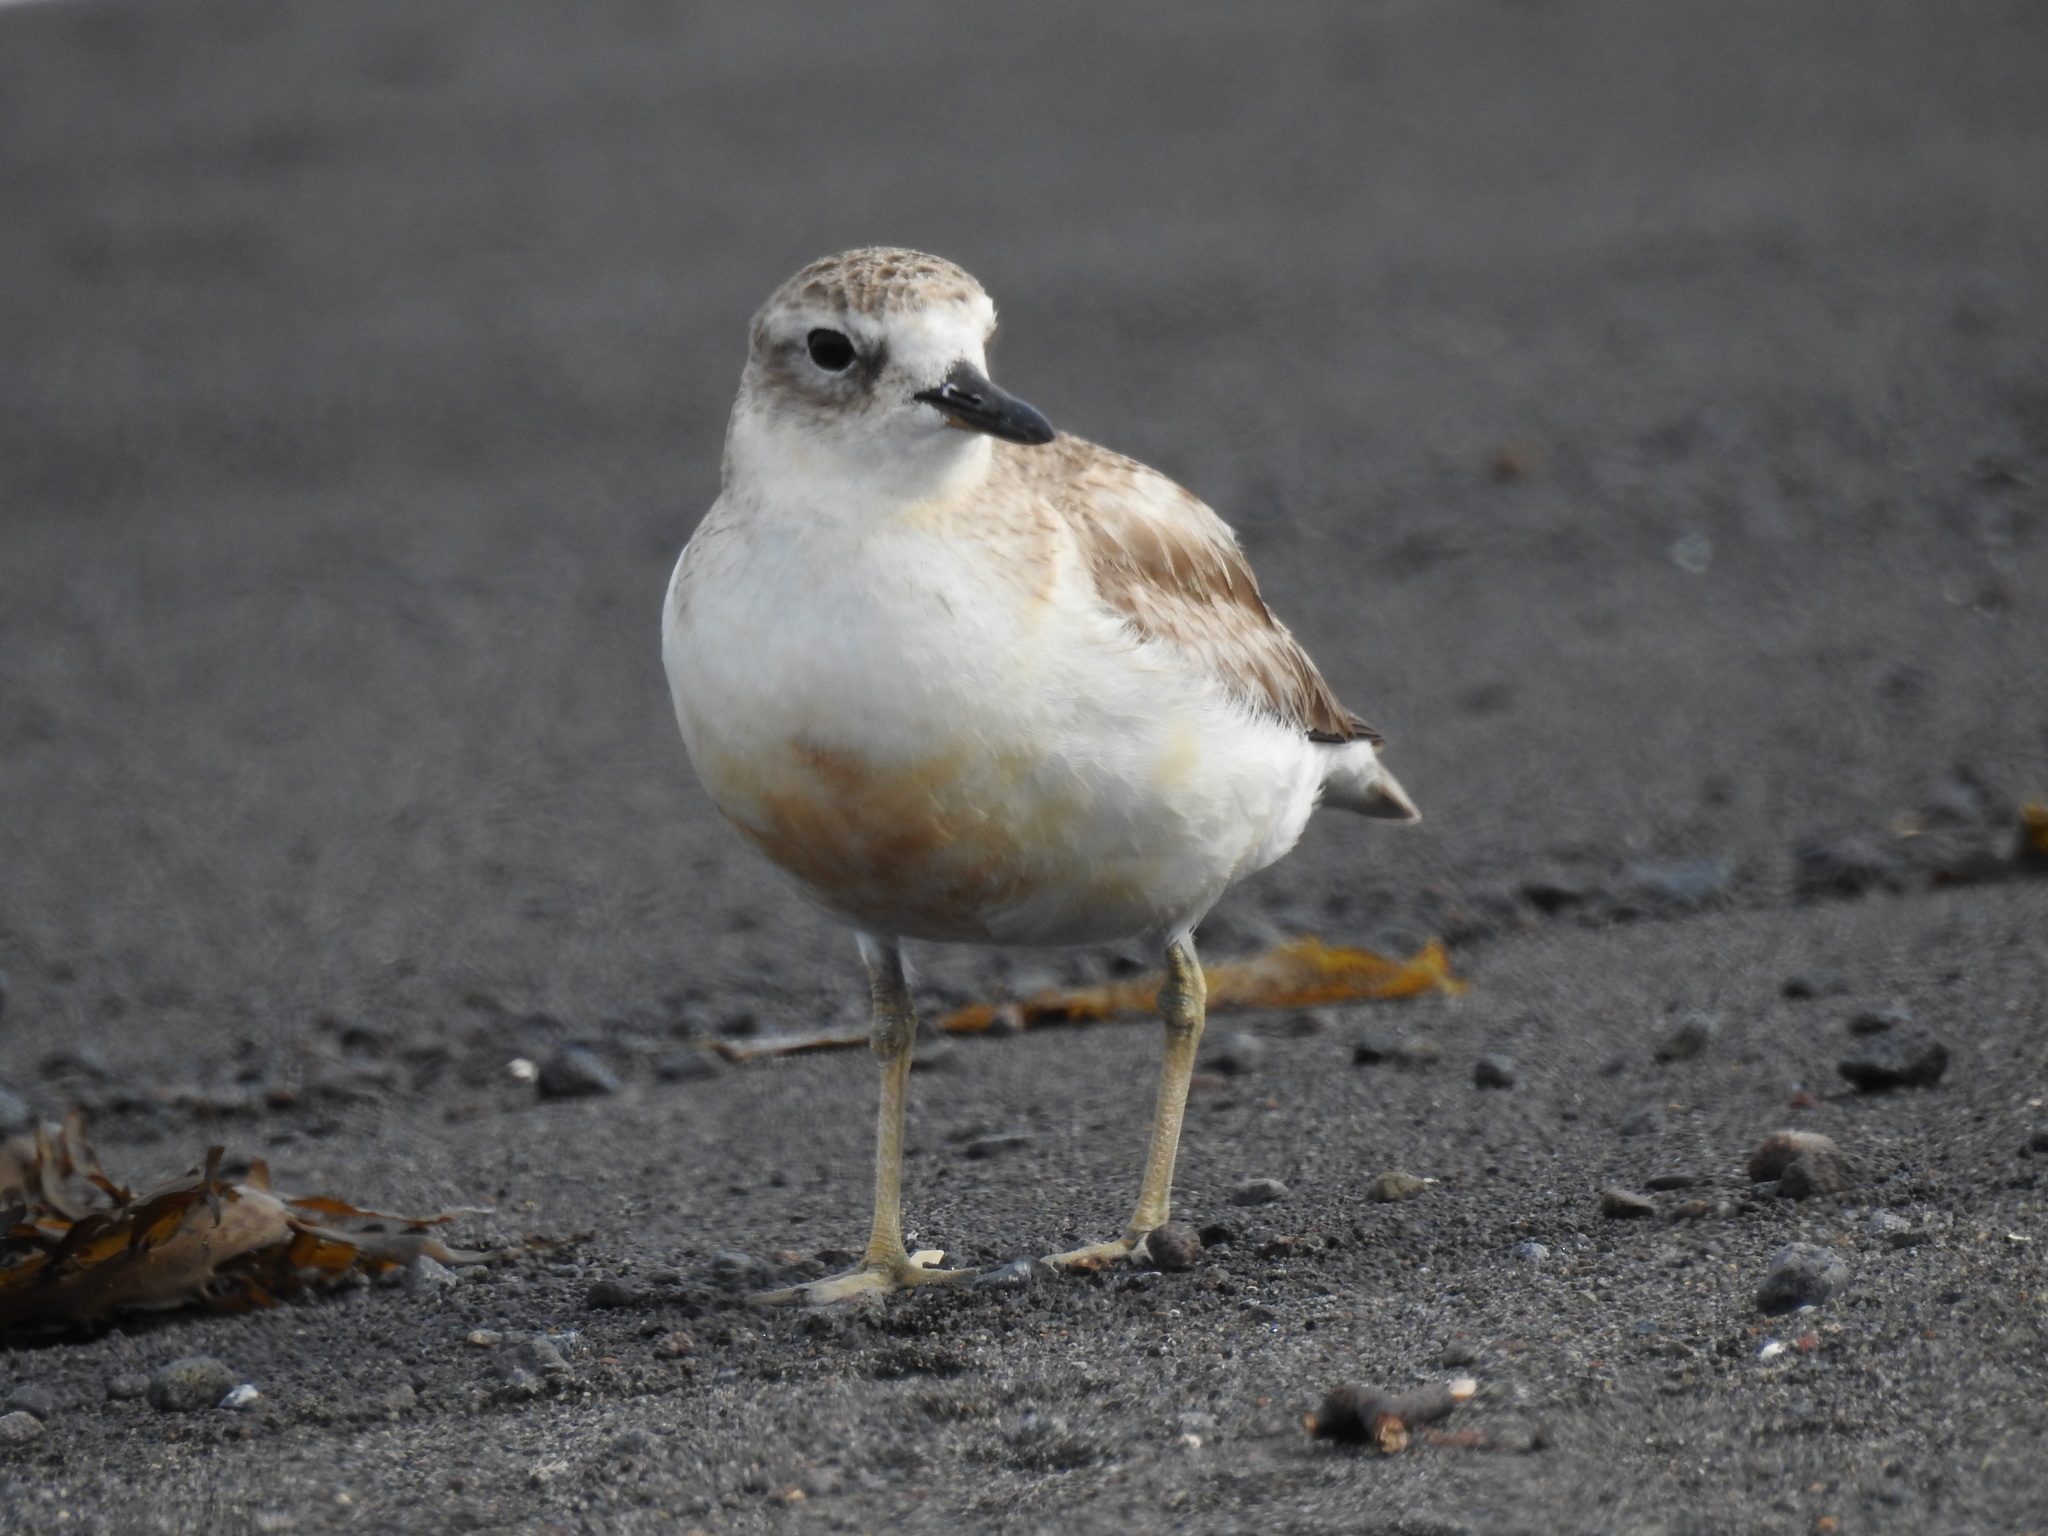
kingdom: Animalia
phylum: Chordata
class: Aves
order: Charadriiformes
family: Charadriidae
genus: Anarhynchus
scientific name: Anarhynchus
